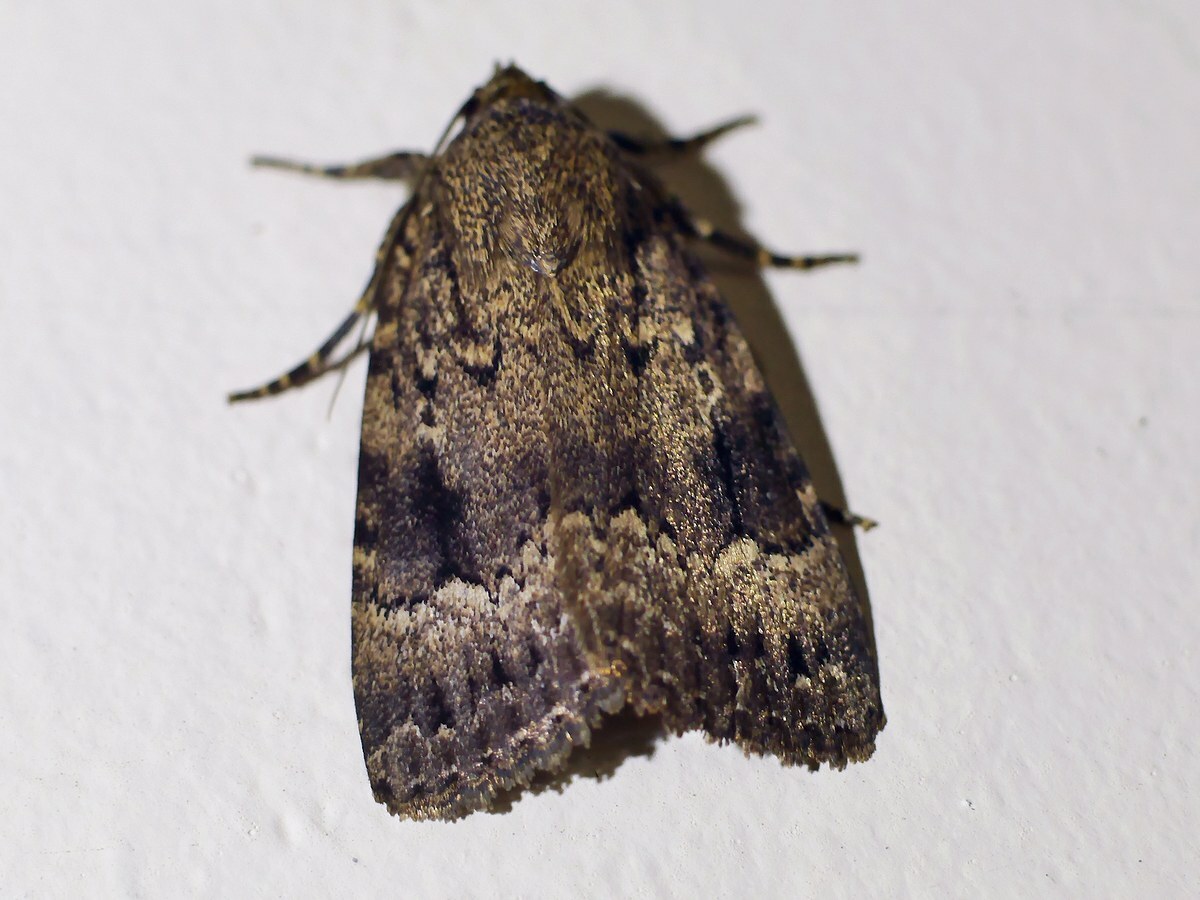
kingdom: Animalia
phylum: Arthropoda
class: Insecta
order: Lepidoptera
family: Noctuidae
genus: Amphipyra
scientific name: Amphipyra pyramidea
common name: Copper underwing
